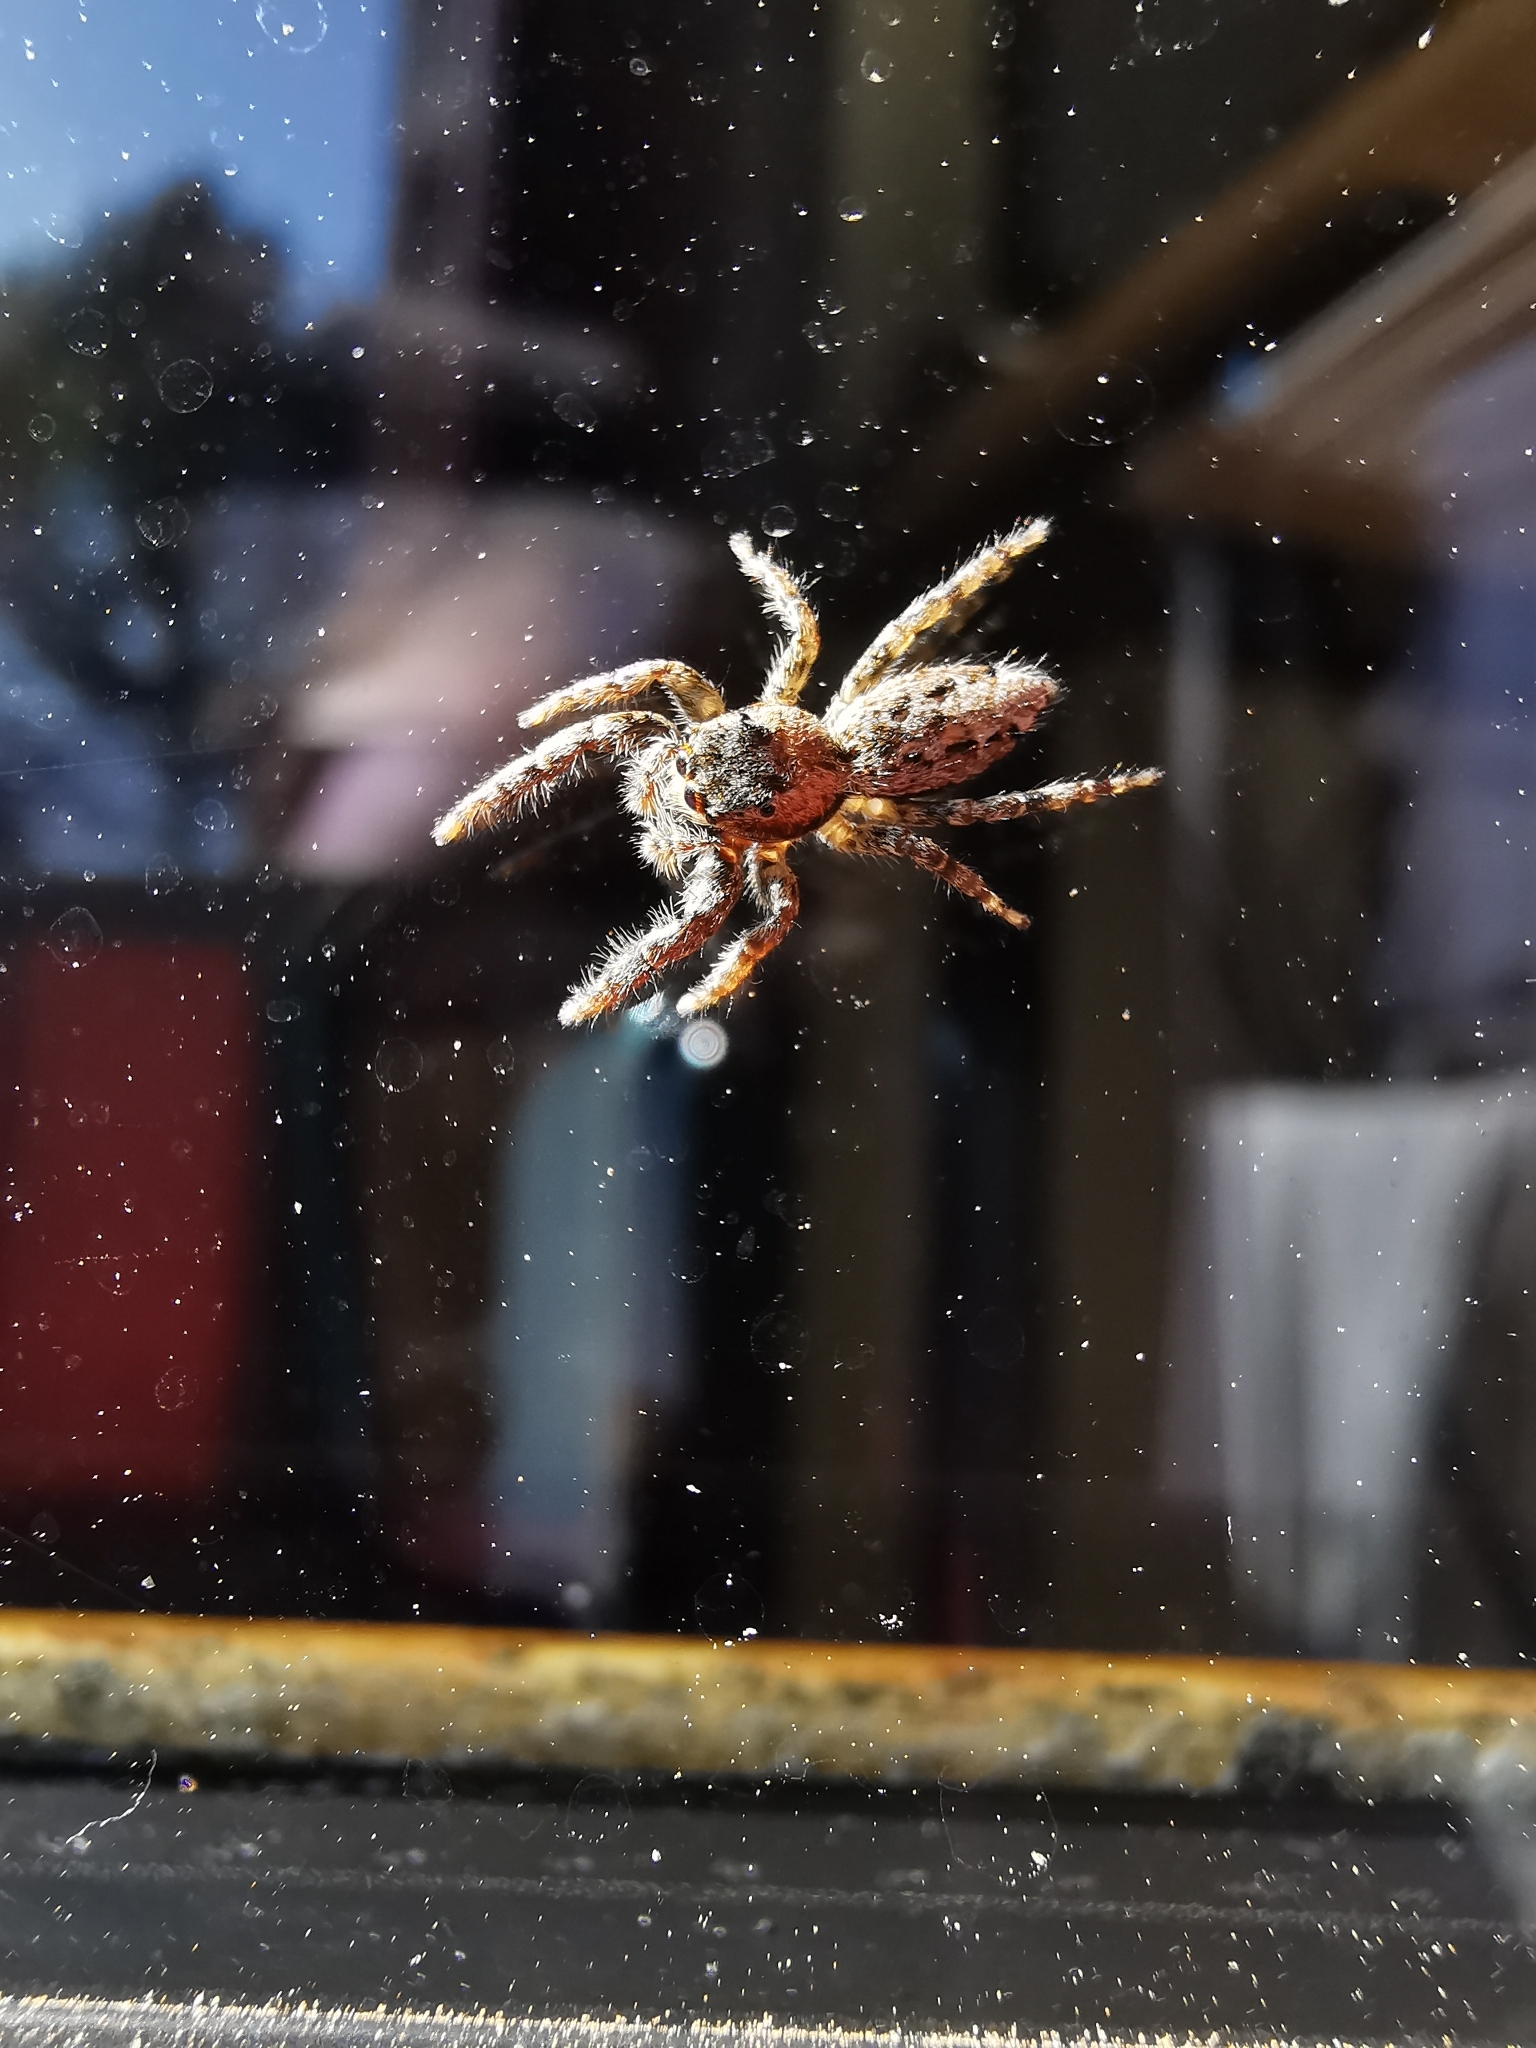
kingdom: Animalia
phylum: Arthropoda
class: Arachnida
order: Araneae
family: Salticidae
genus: Marpissa
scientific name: Marpissa muscosa
